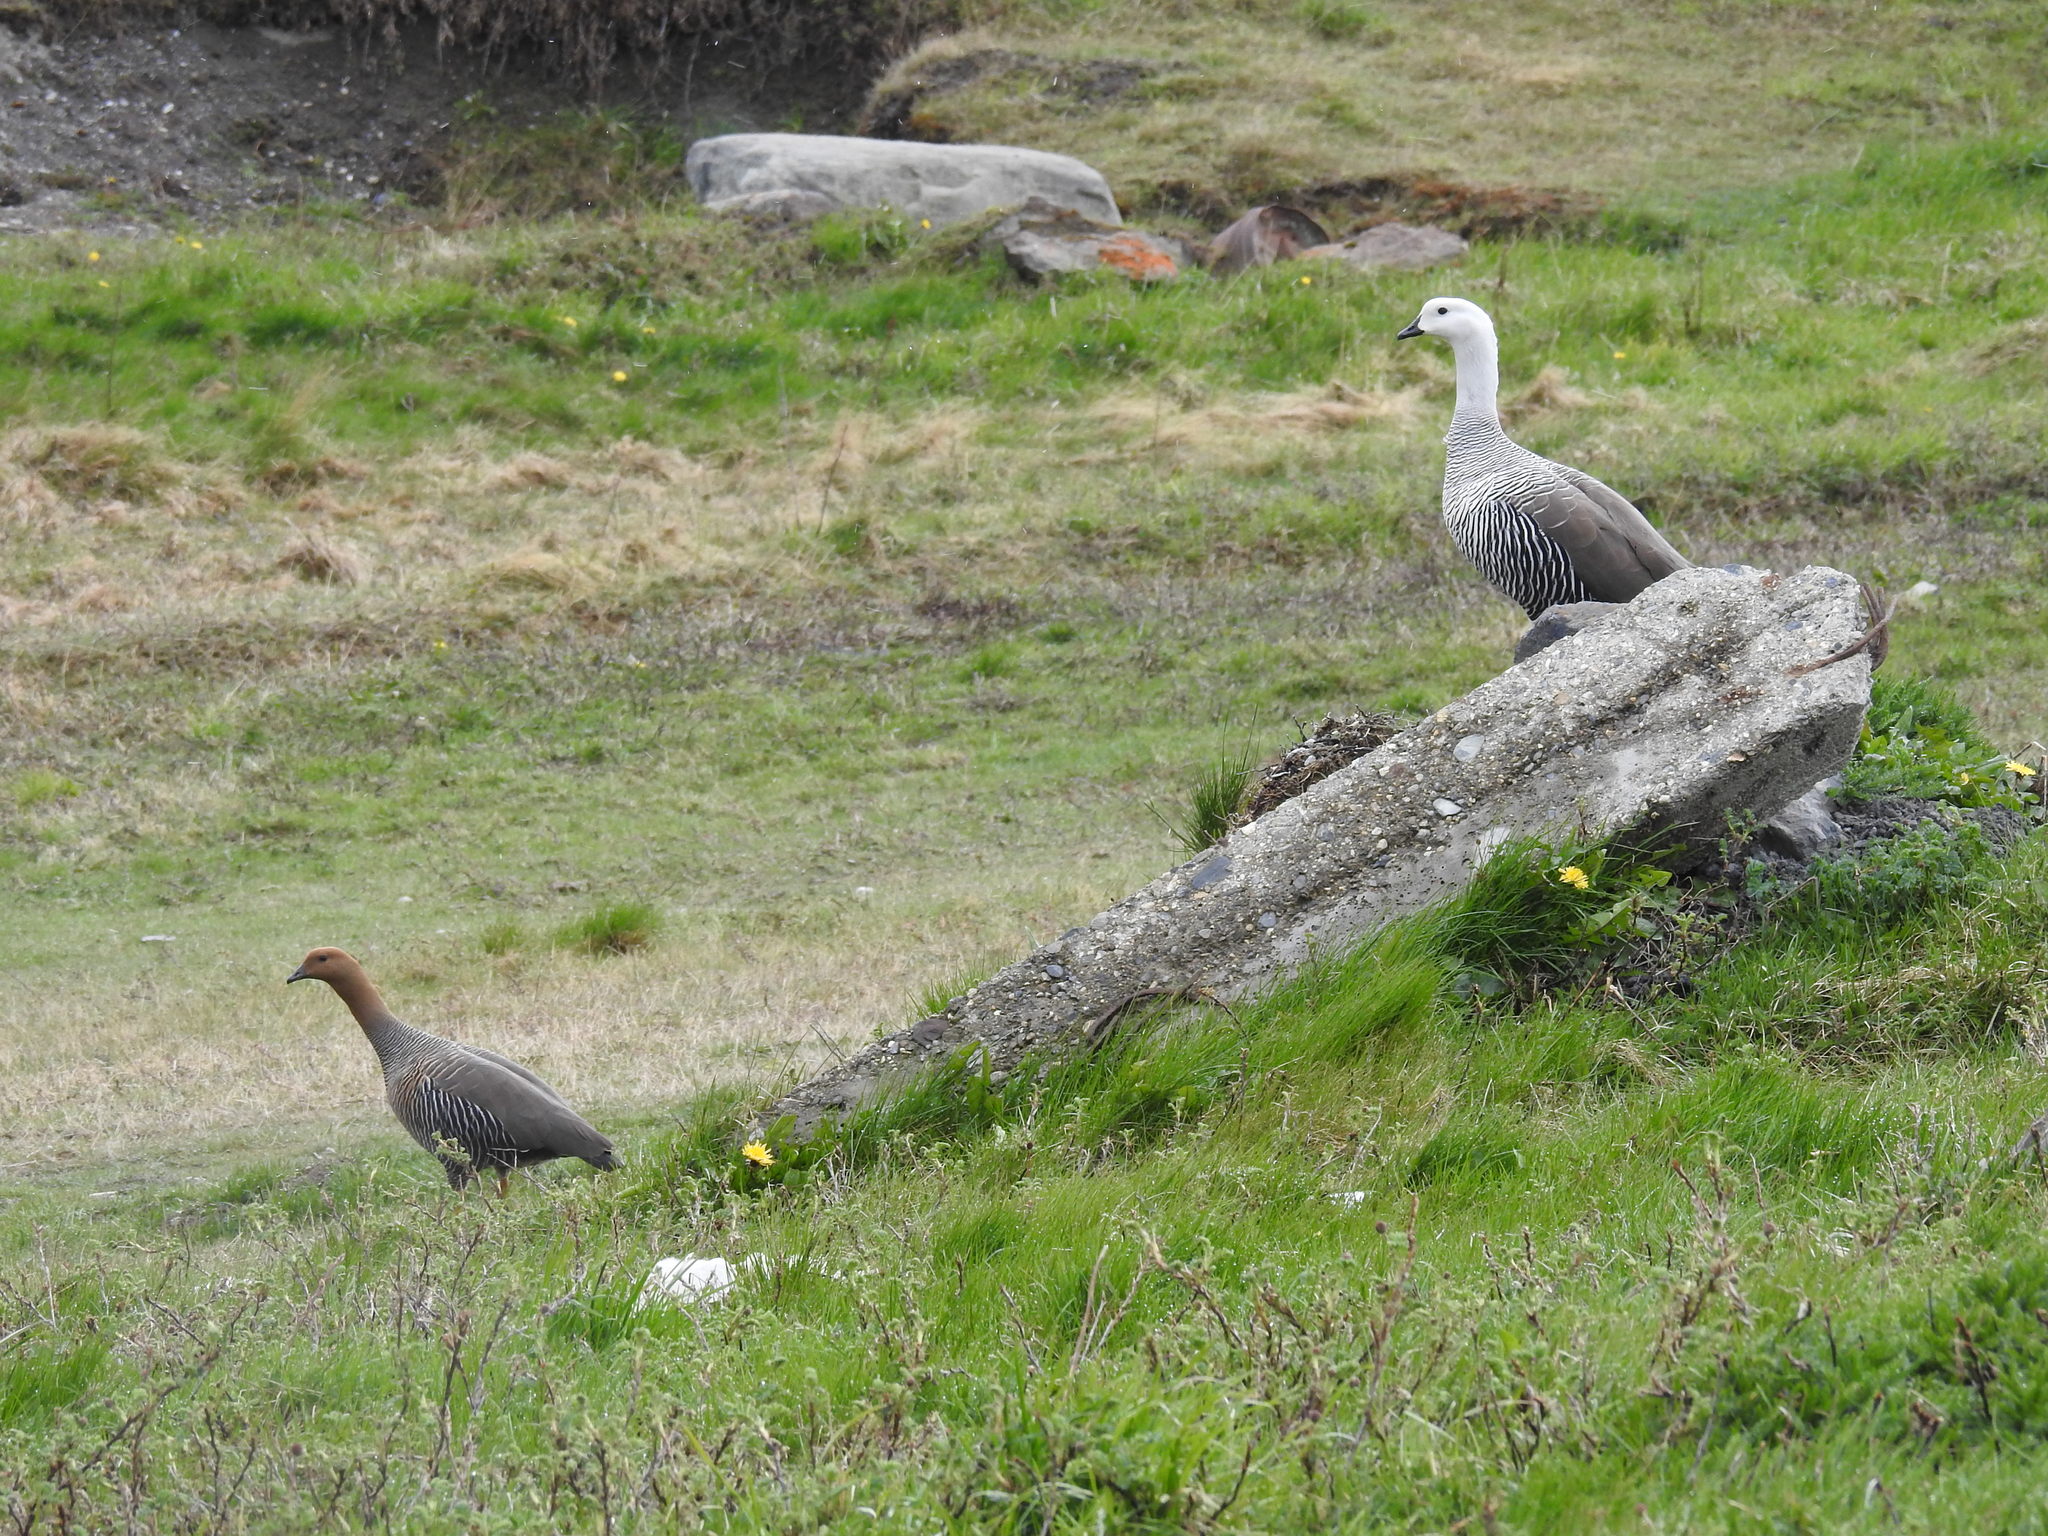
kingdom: Animalia
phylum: Chordata
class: Aves
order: Anseriformes
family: Anatidae
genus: Chloephaga
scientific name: Chloephaga picta
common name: Upland goose
